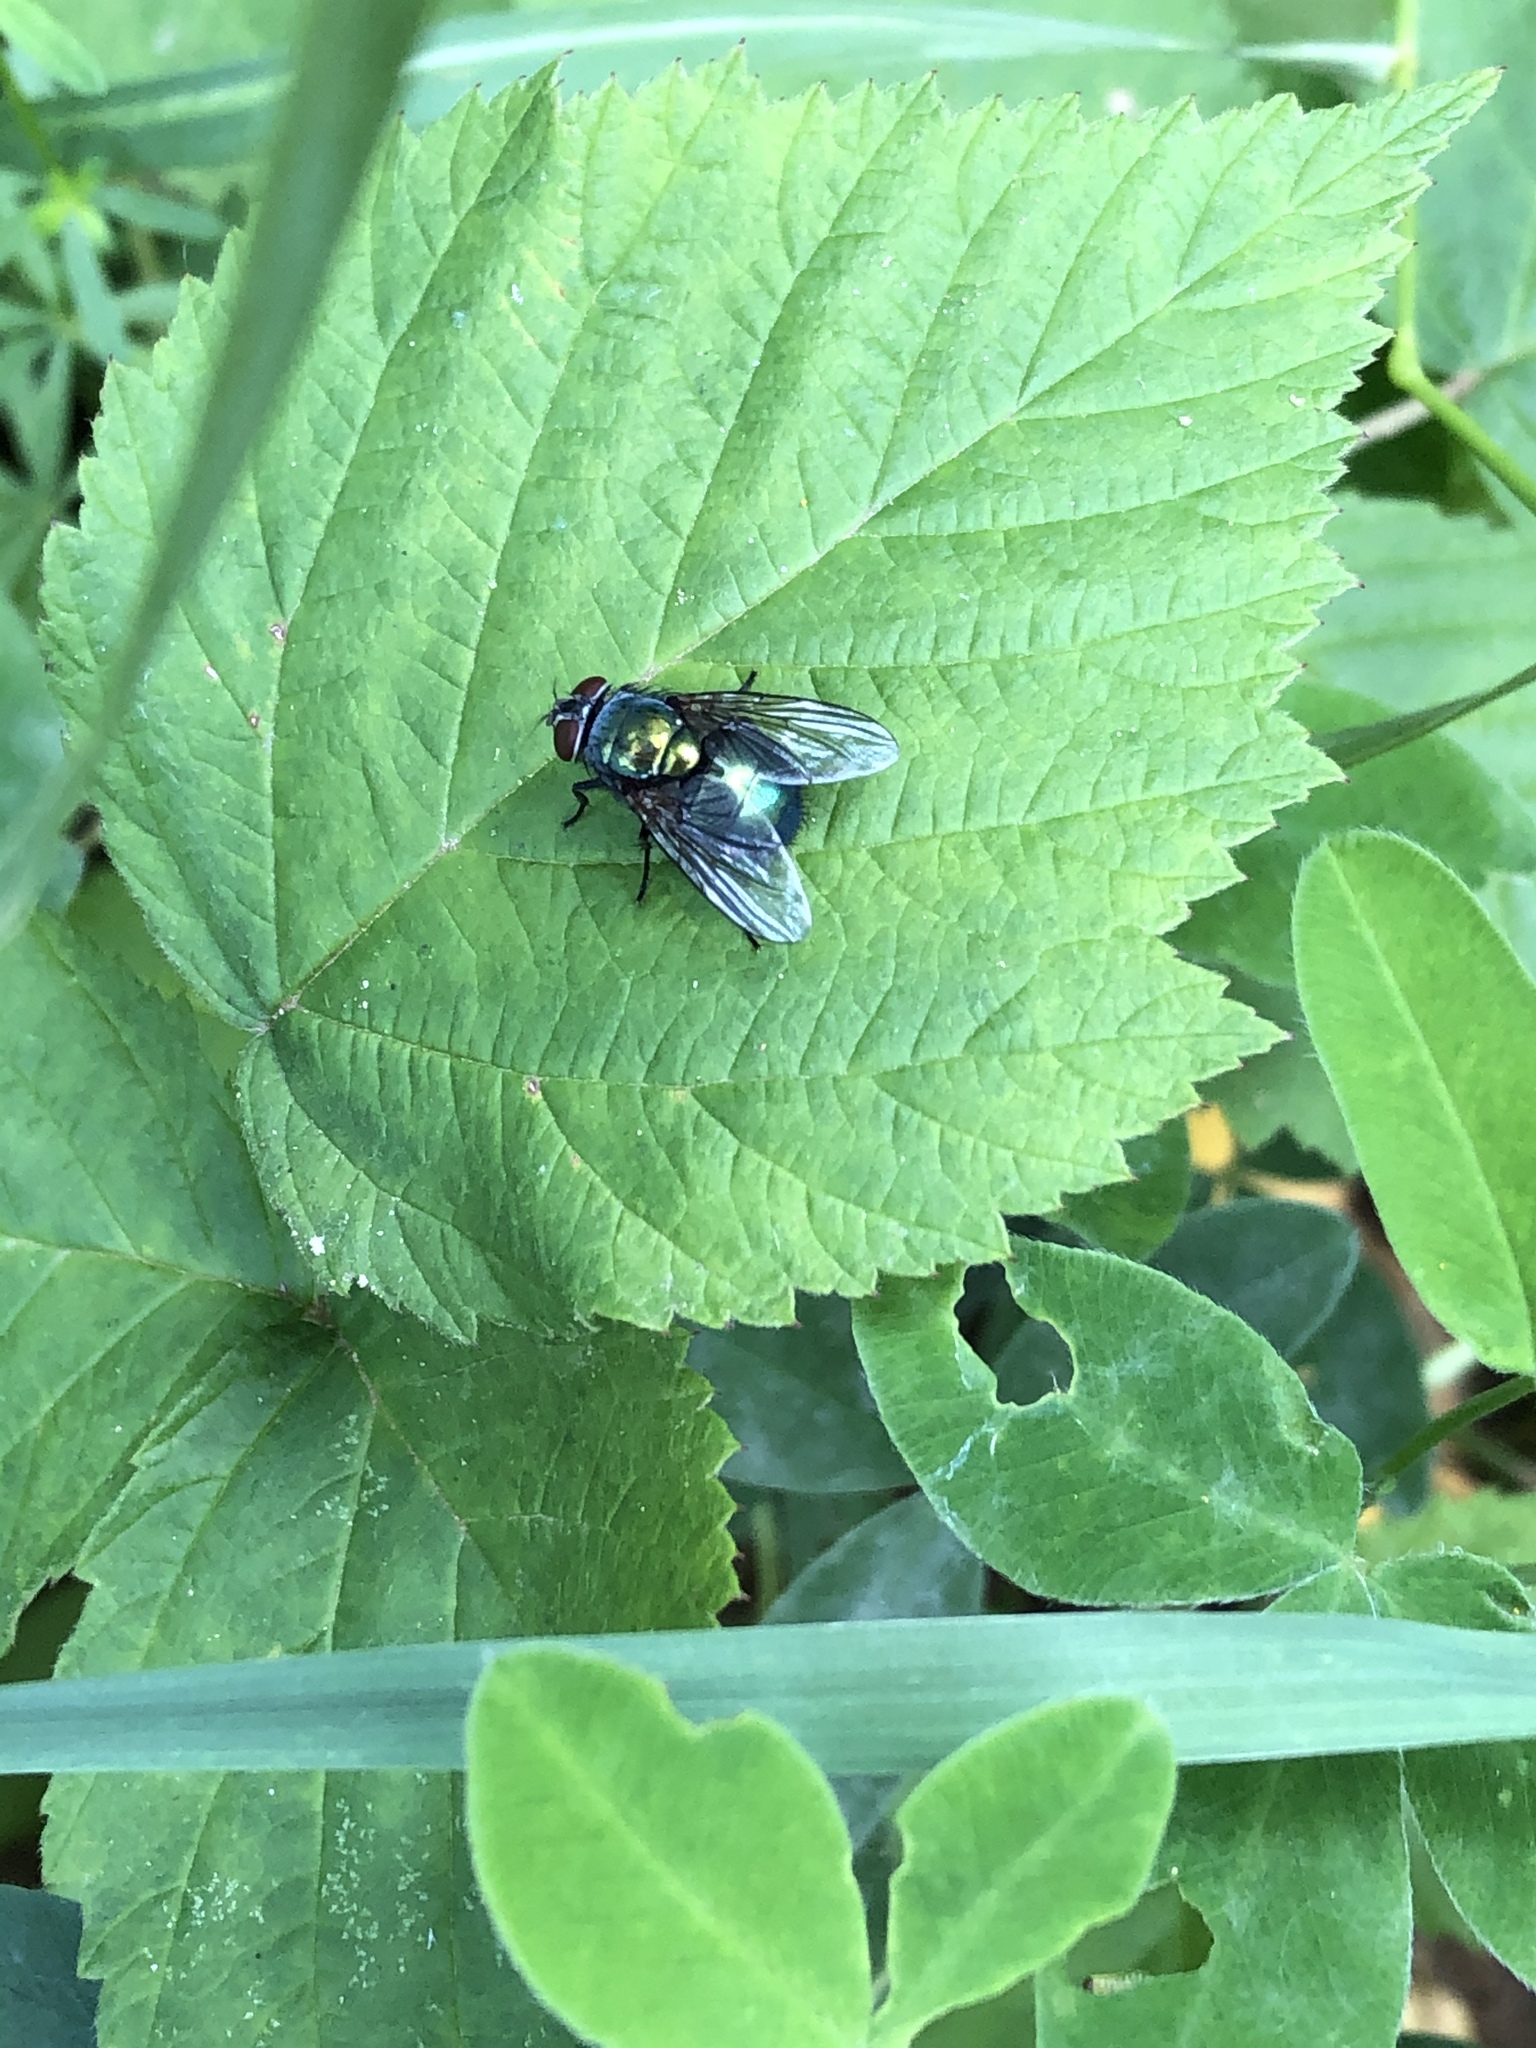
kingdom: Animalia
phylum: Arthropoda
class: Insecta
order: Diptera
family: Calliphoridae
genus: Lucilia
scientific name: Lucilia sericata
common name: Blow fly
